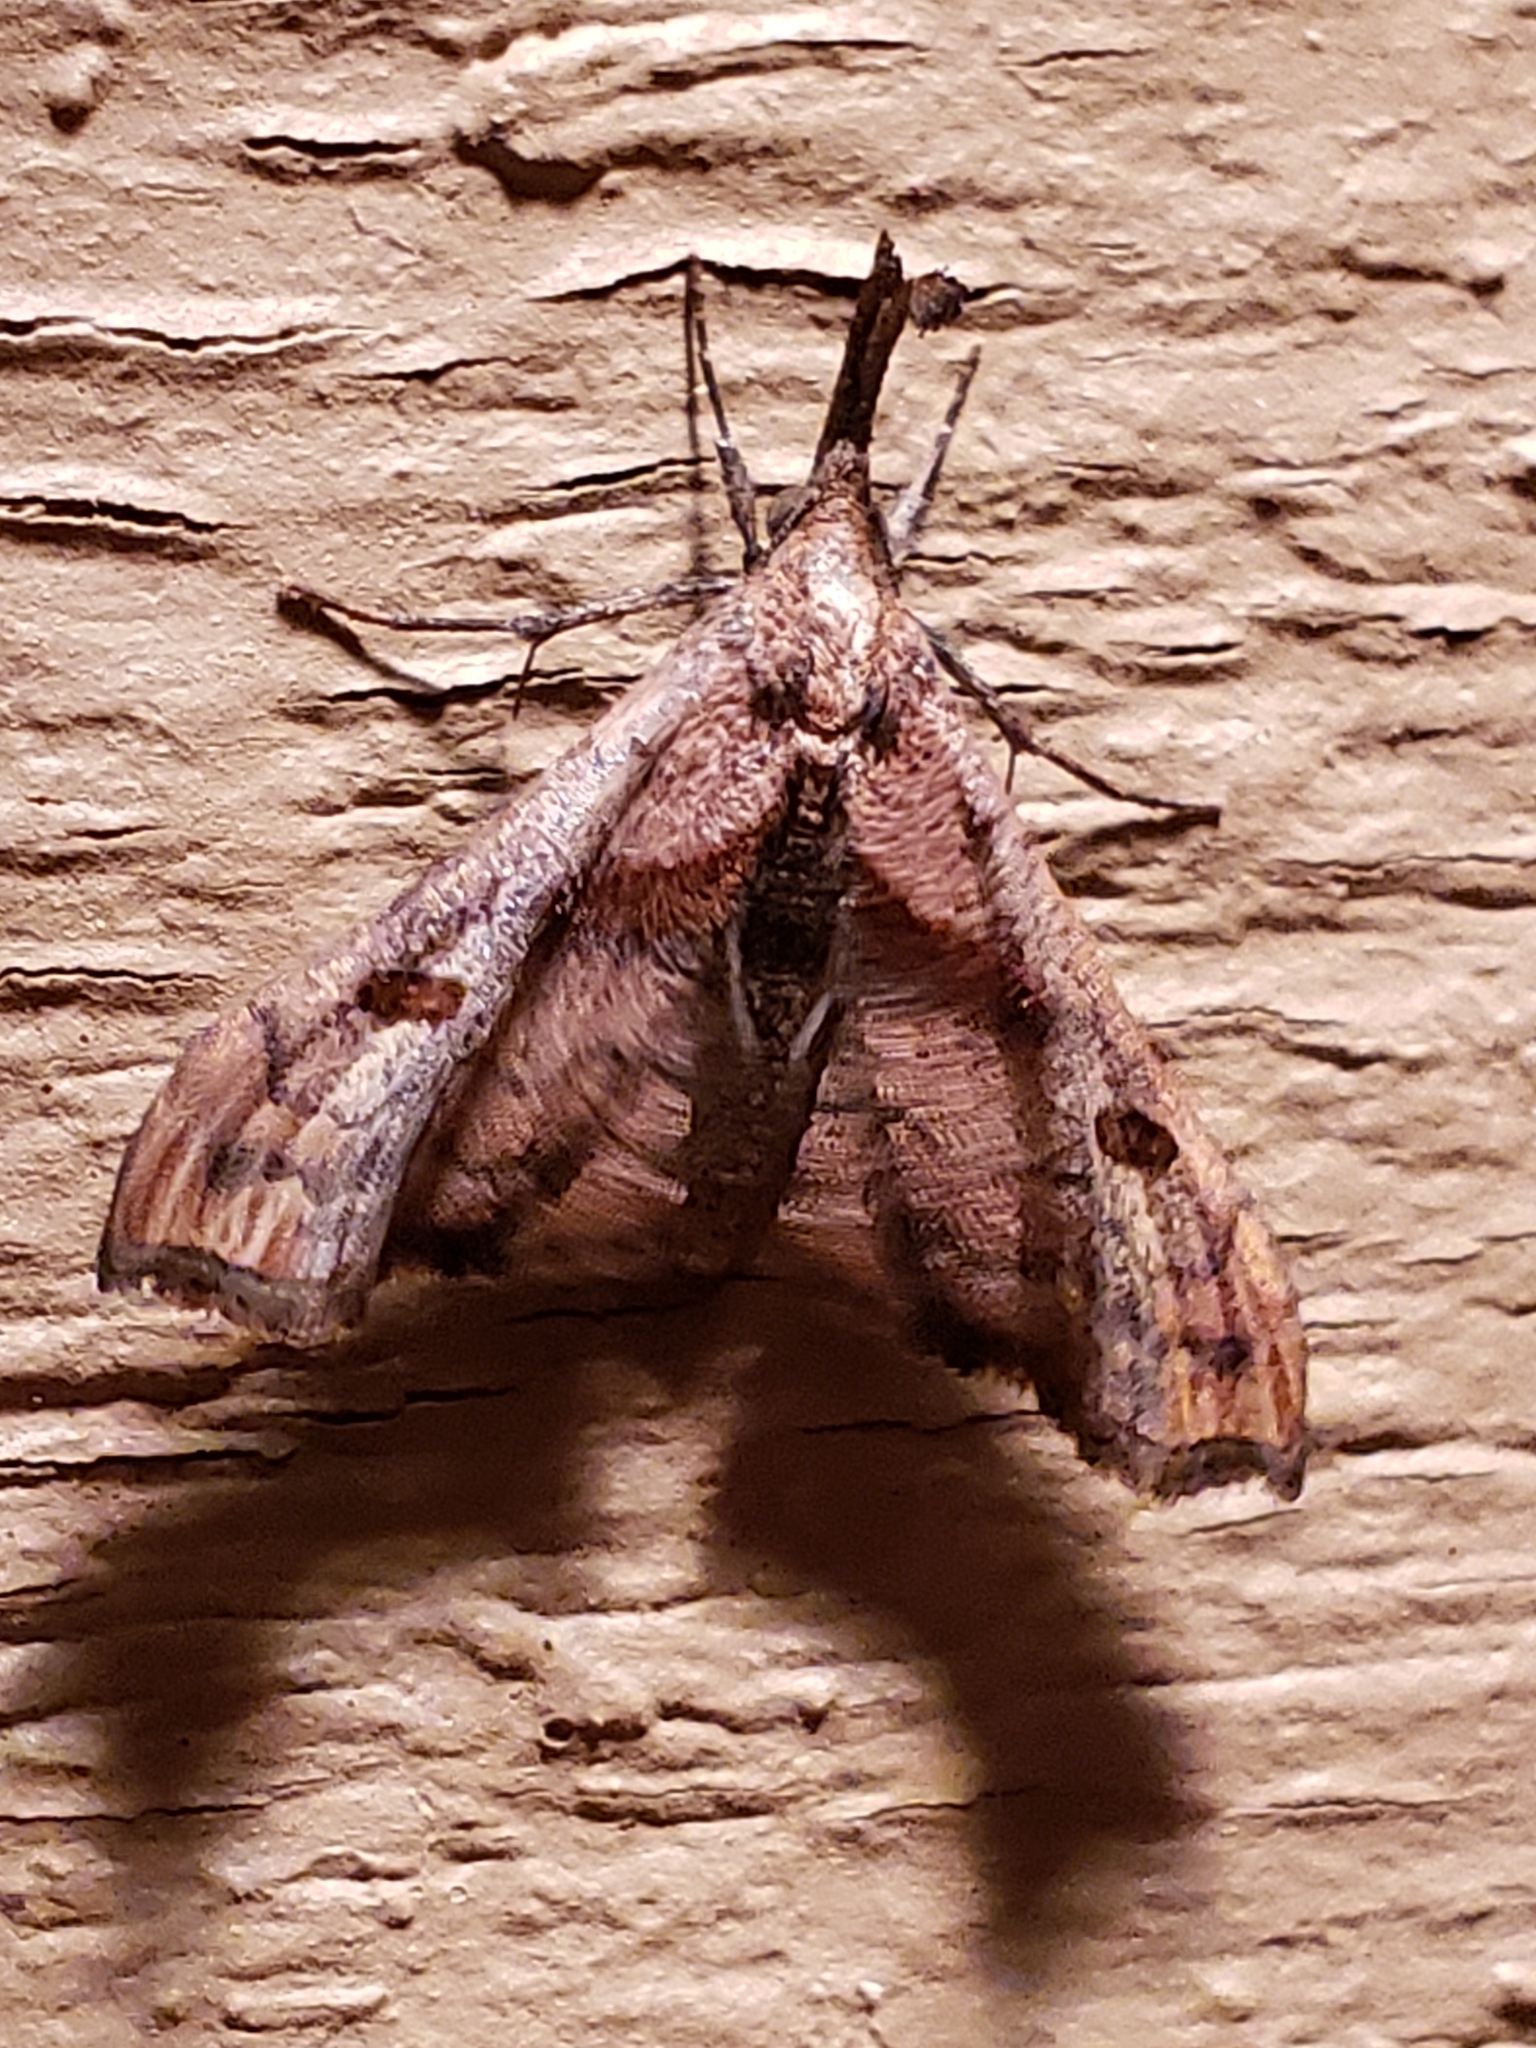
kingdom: Animalia
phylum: Arthropoda
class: Insecta
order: Lepidoptera
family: Erebidae
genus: Palthis
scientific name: Palthis angulalis
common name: Dark-spotted palthis moth
